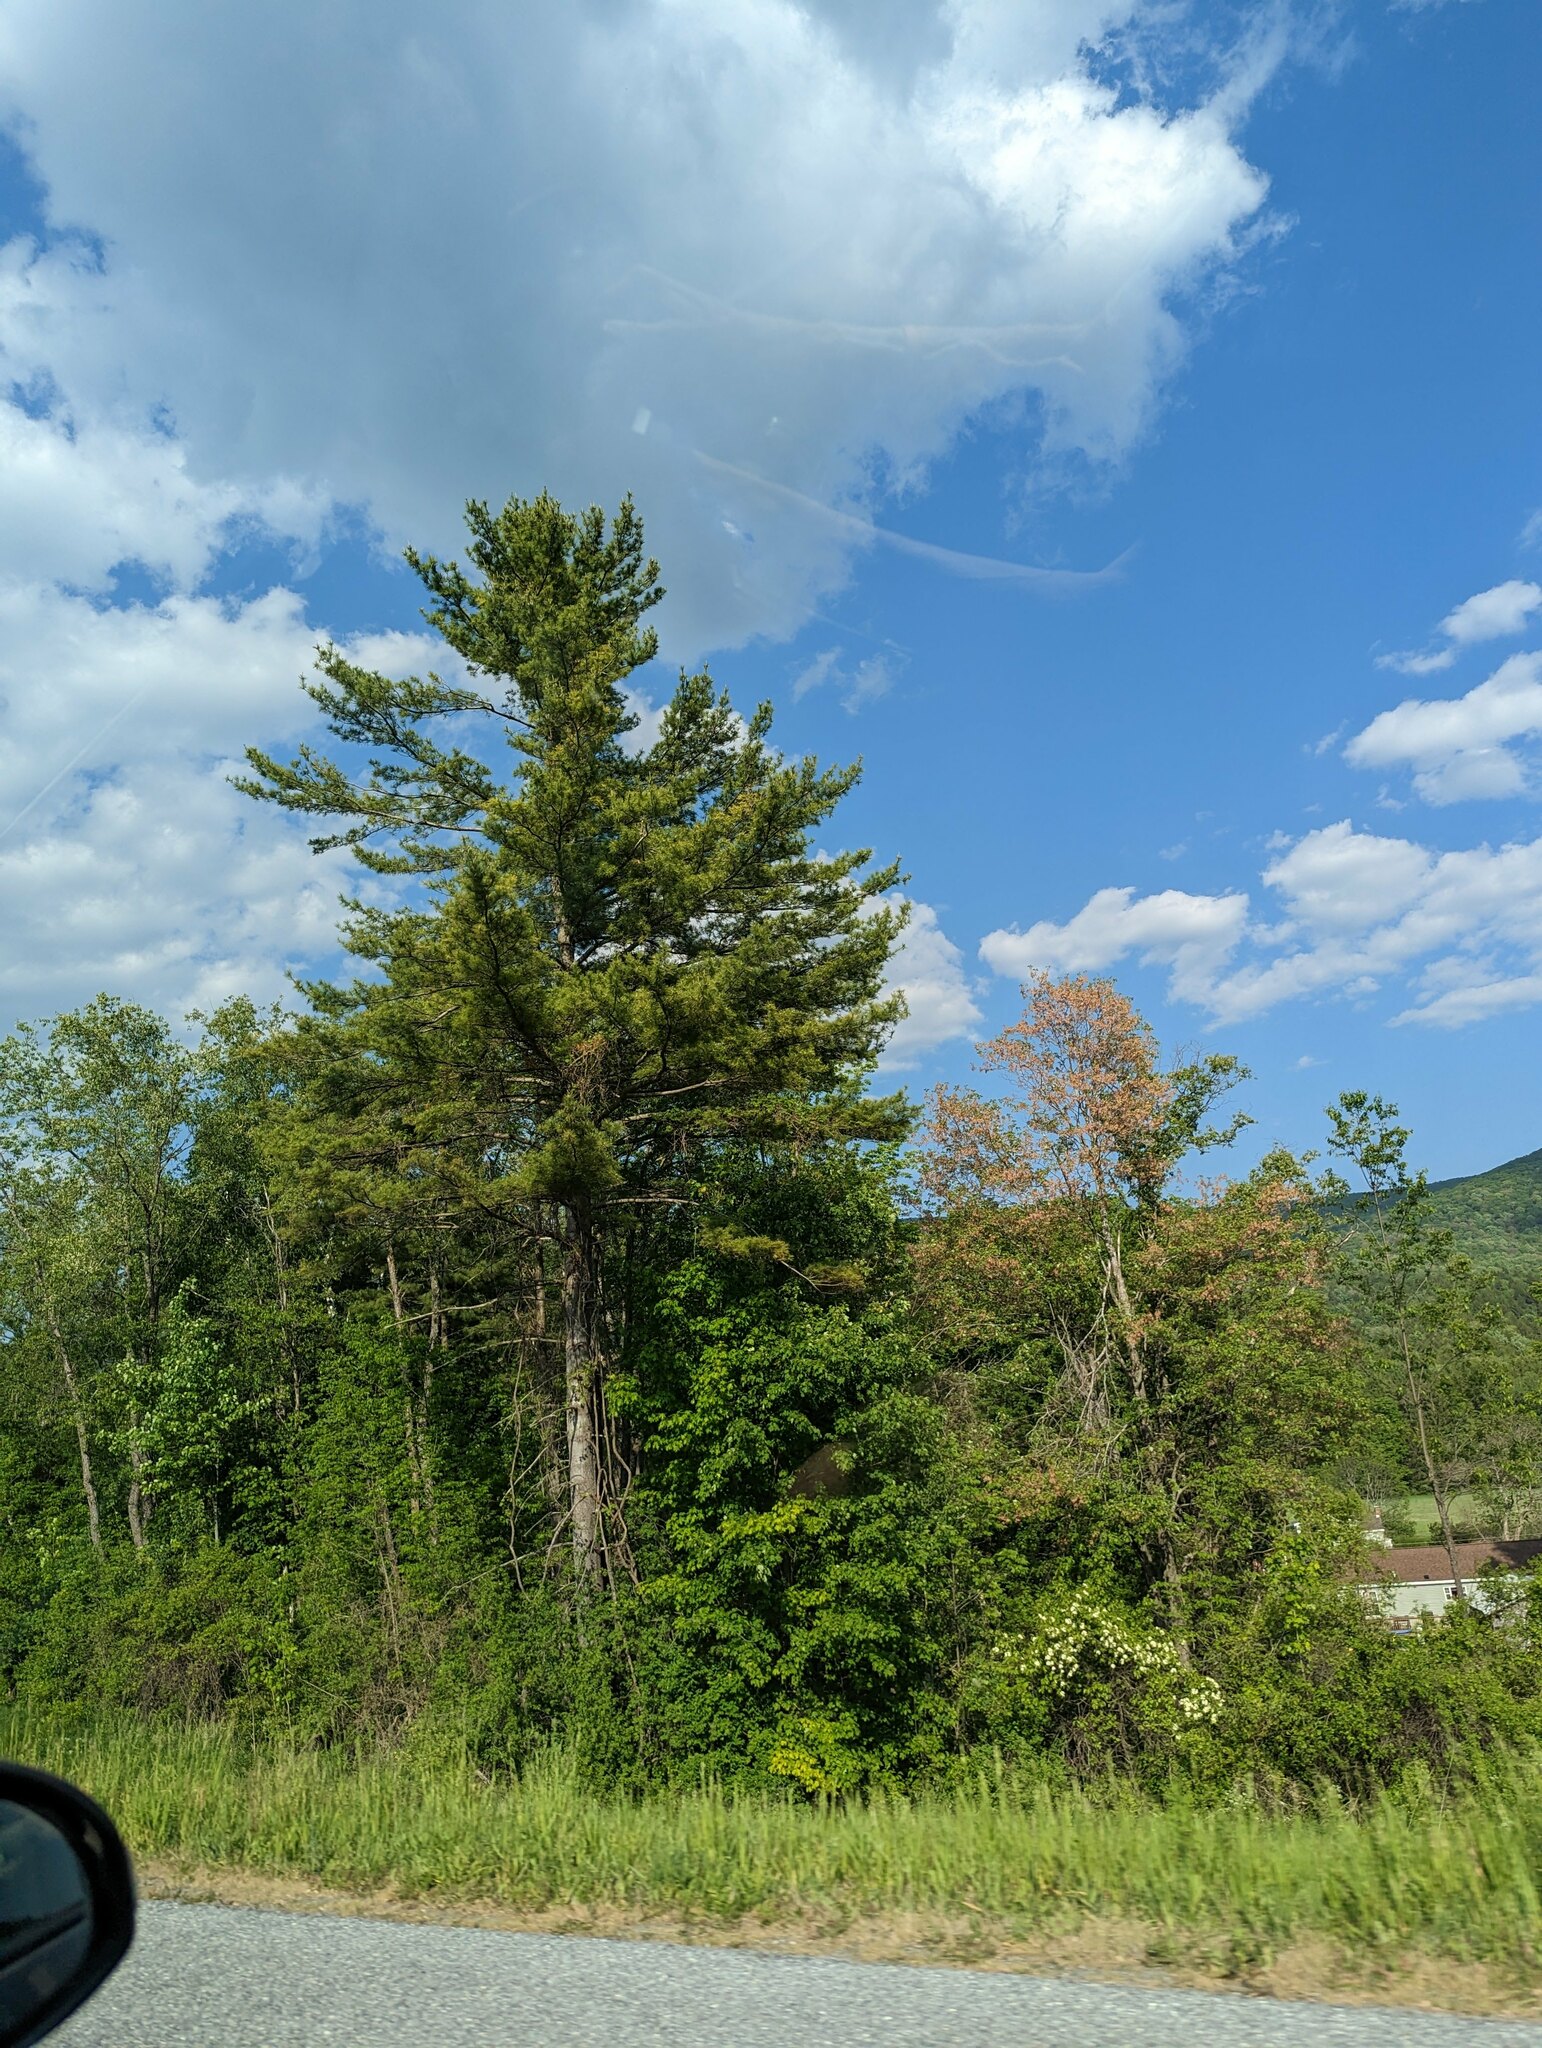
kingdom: Plantae
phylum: Tracheophyta
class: Pinopsida
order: Pinales
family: Pinaceae
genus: Pinus
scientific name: Pinus strobus
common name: Weymouth pine
